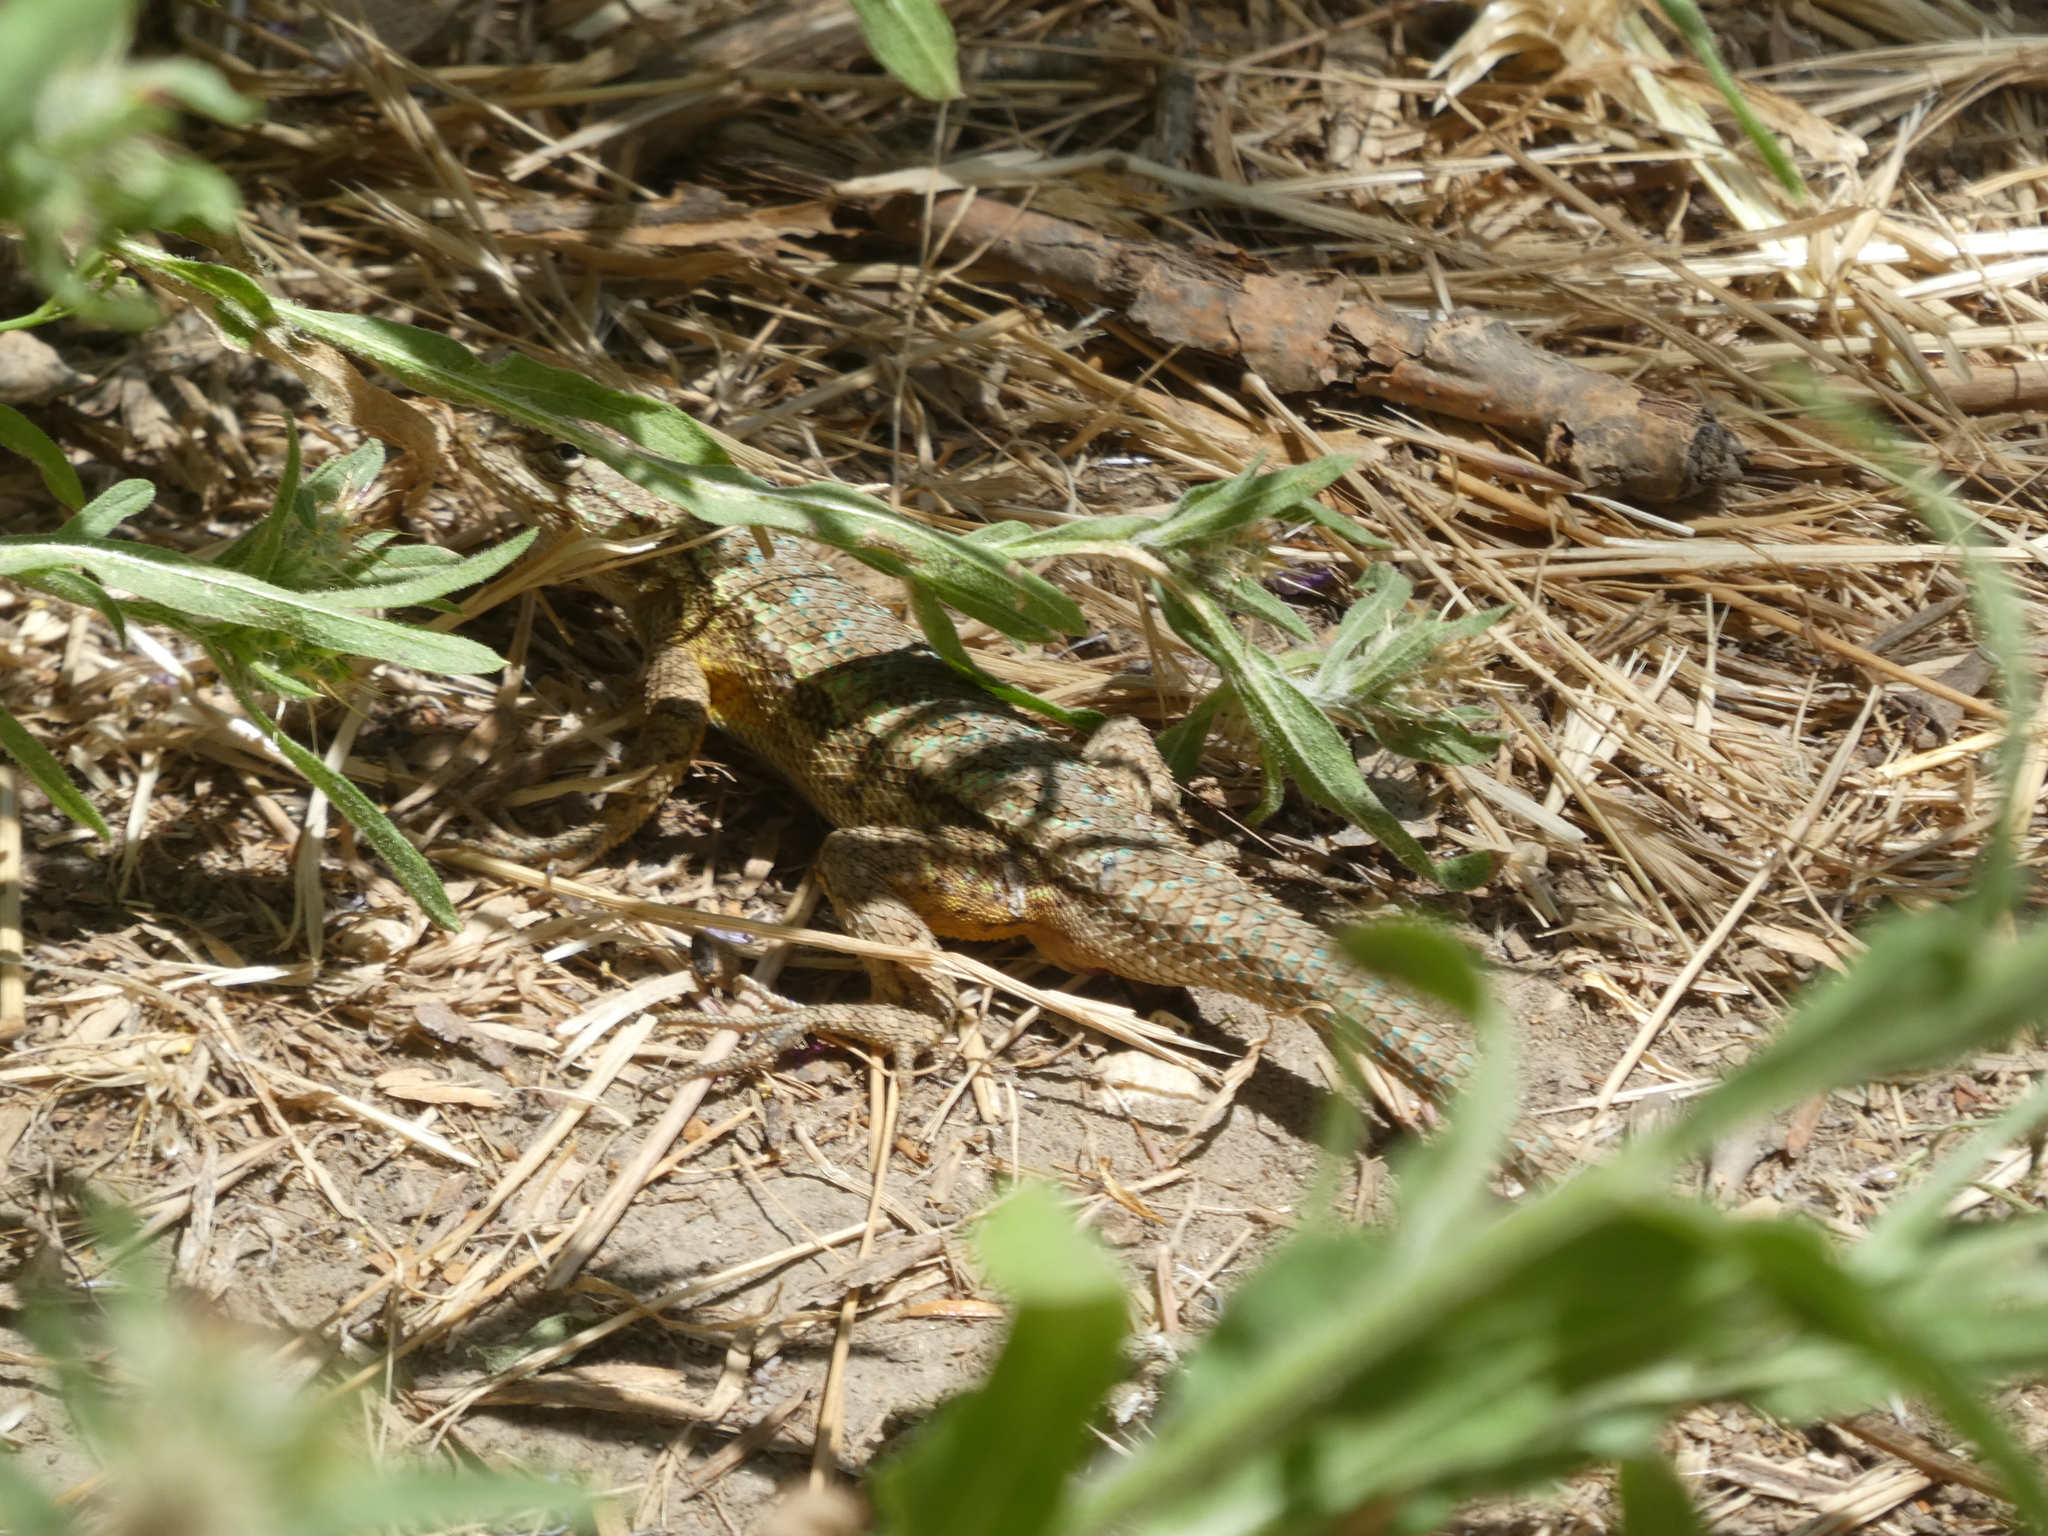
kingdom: Animalia
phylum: Chordata
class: Squamata
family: Phrynosomatidae
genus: Sceloporus
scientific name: Sceloporus occidentalis
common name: Western fence lizard
